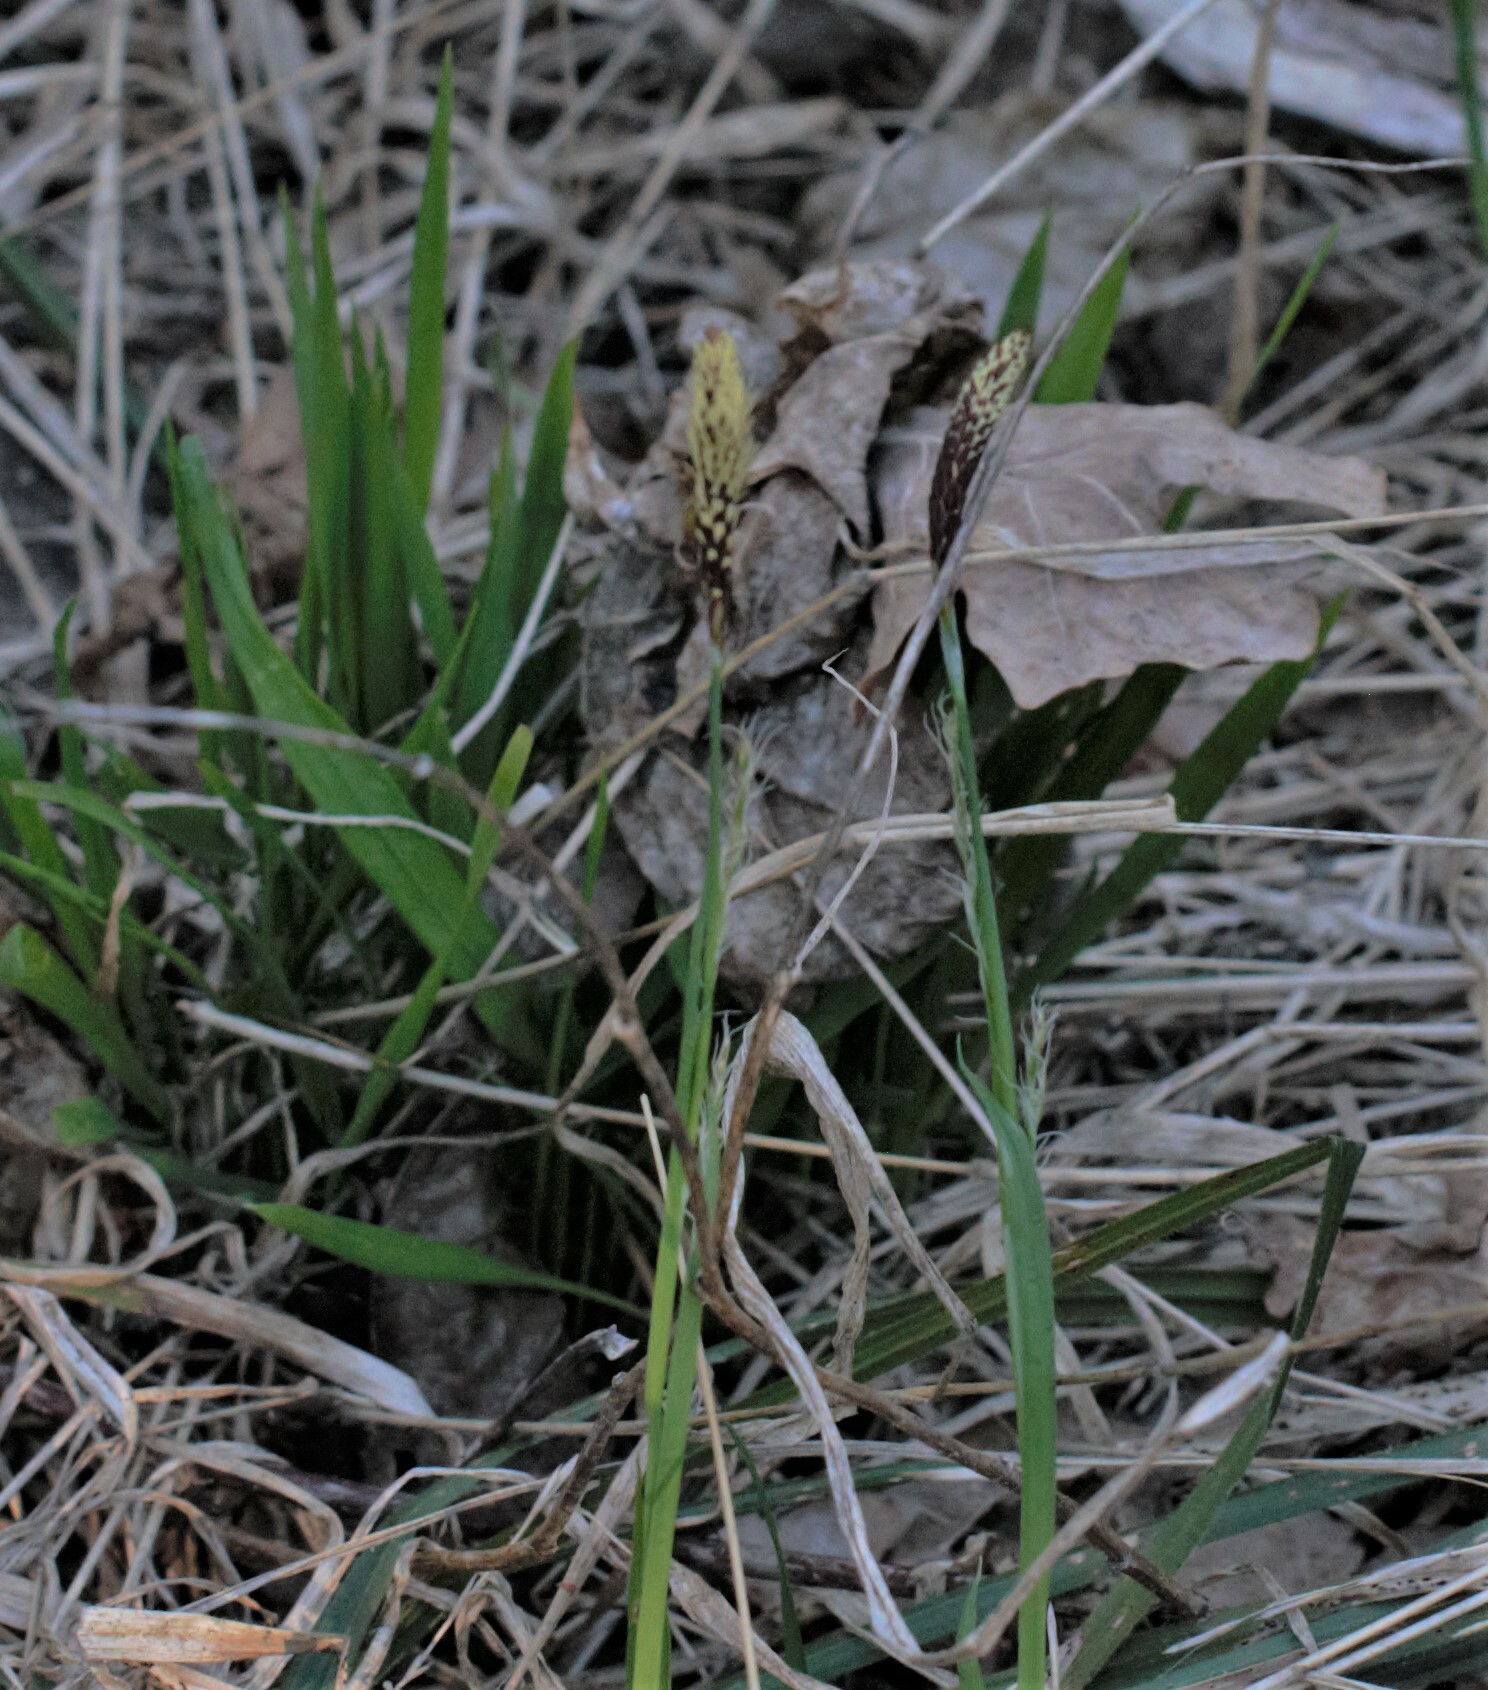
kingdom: Plantae
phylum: Tracheophyta
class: Liliopsida
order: Poales
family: Cyperaceae
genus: Carex
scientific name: Carex pilosa
